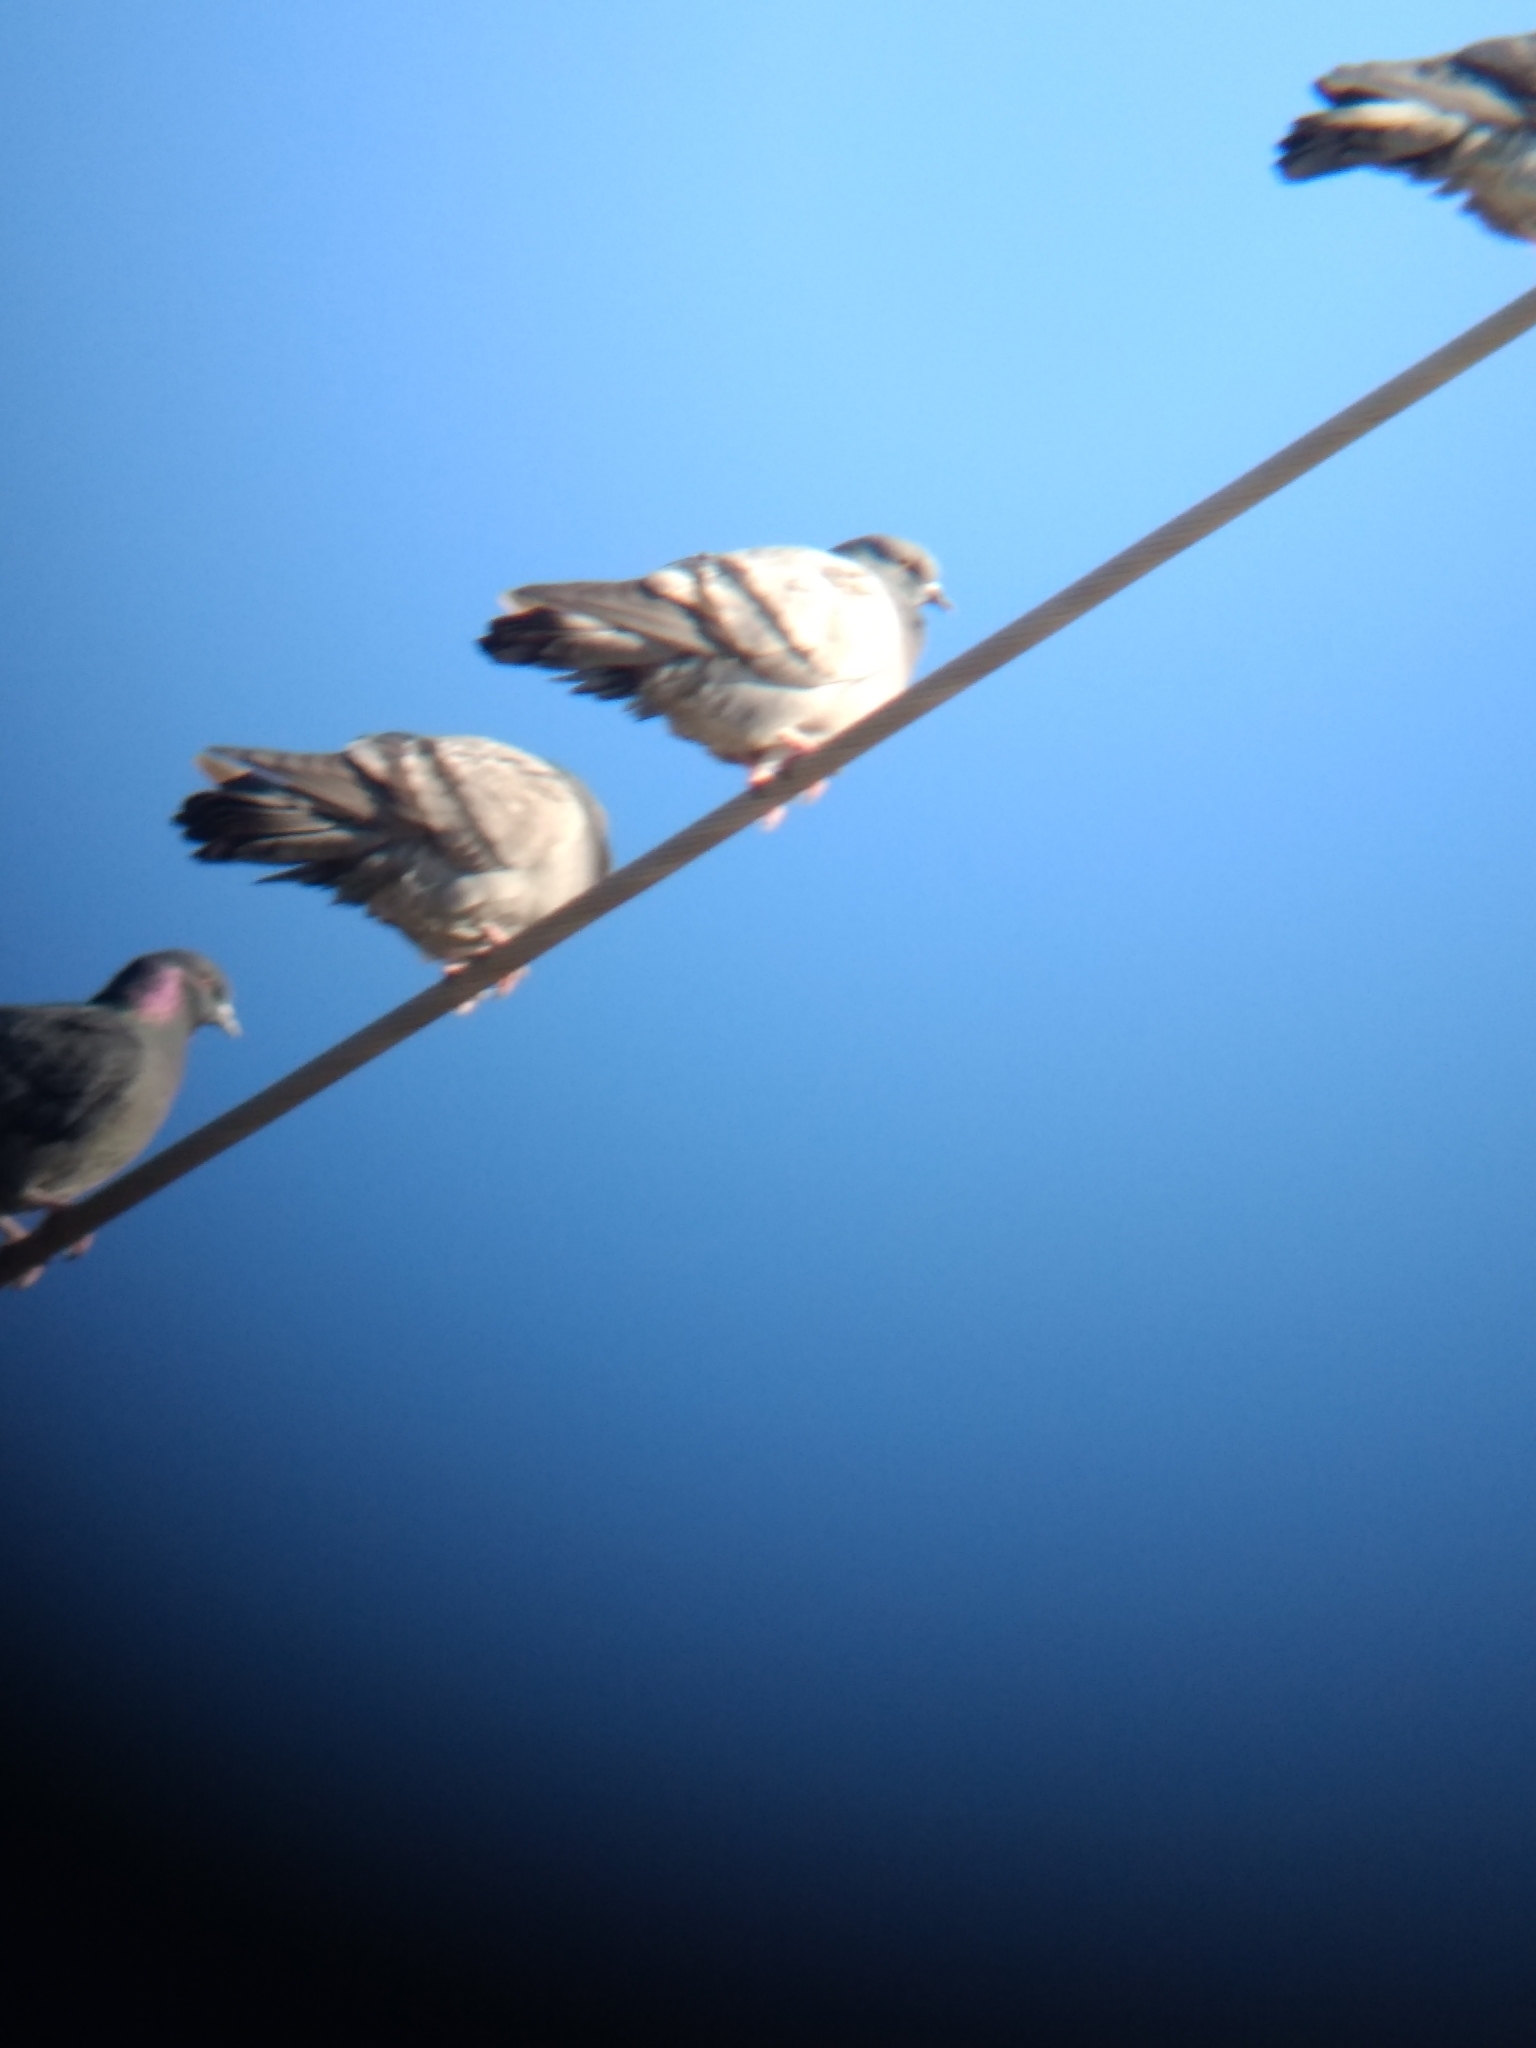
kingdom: Animalia
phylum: Chordata
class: Aves
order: Columbiformes
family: Columbidae
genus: Columba
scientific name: Columba livia
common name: Rock pigeon
